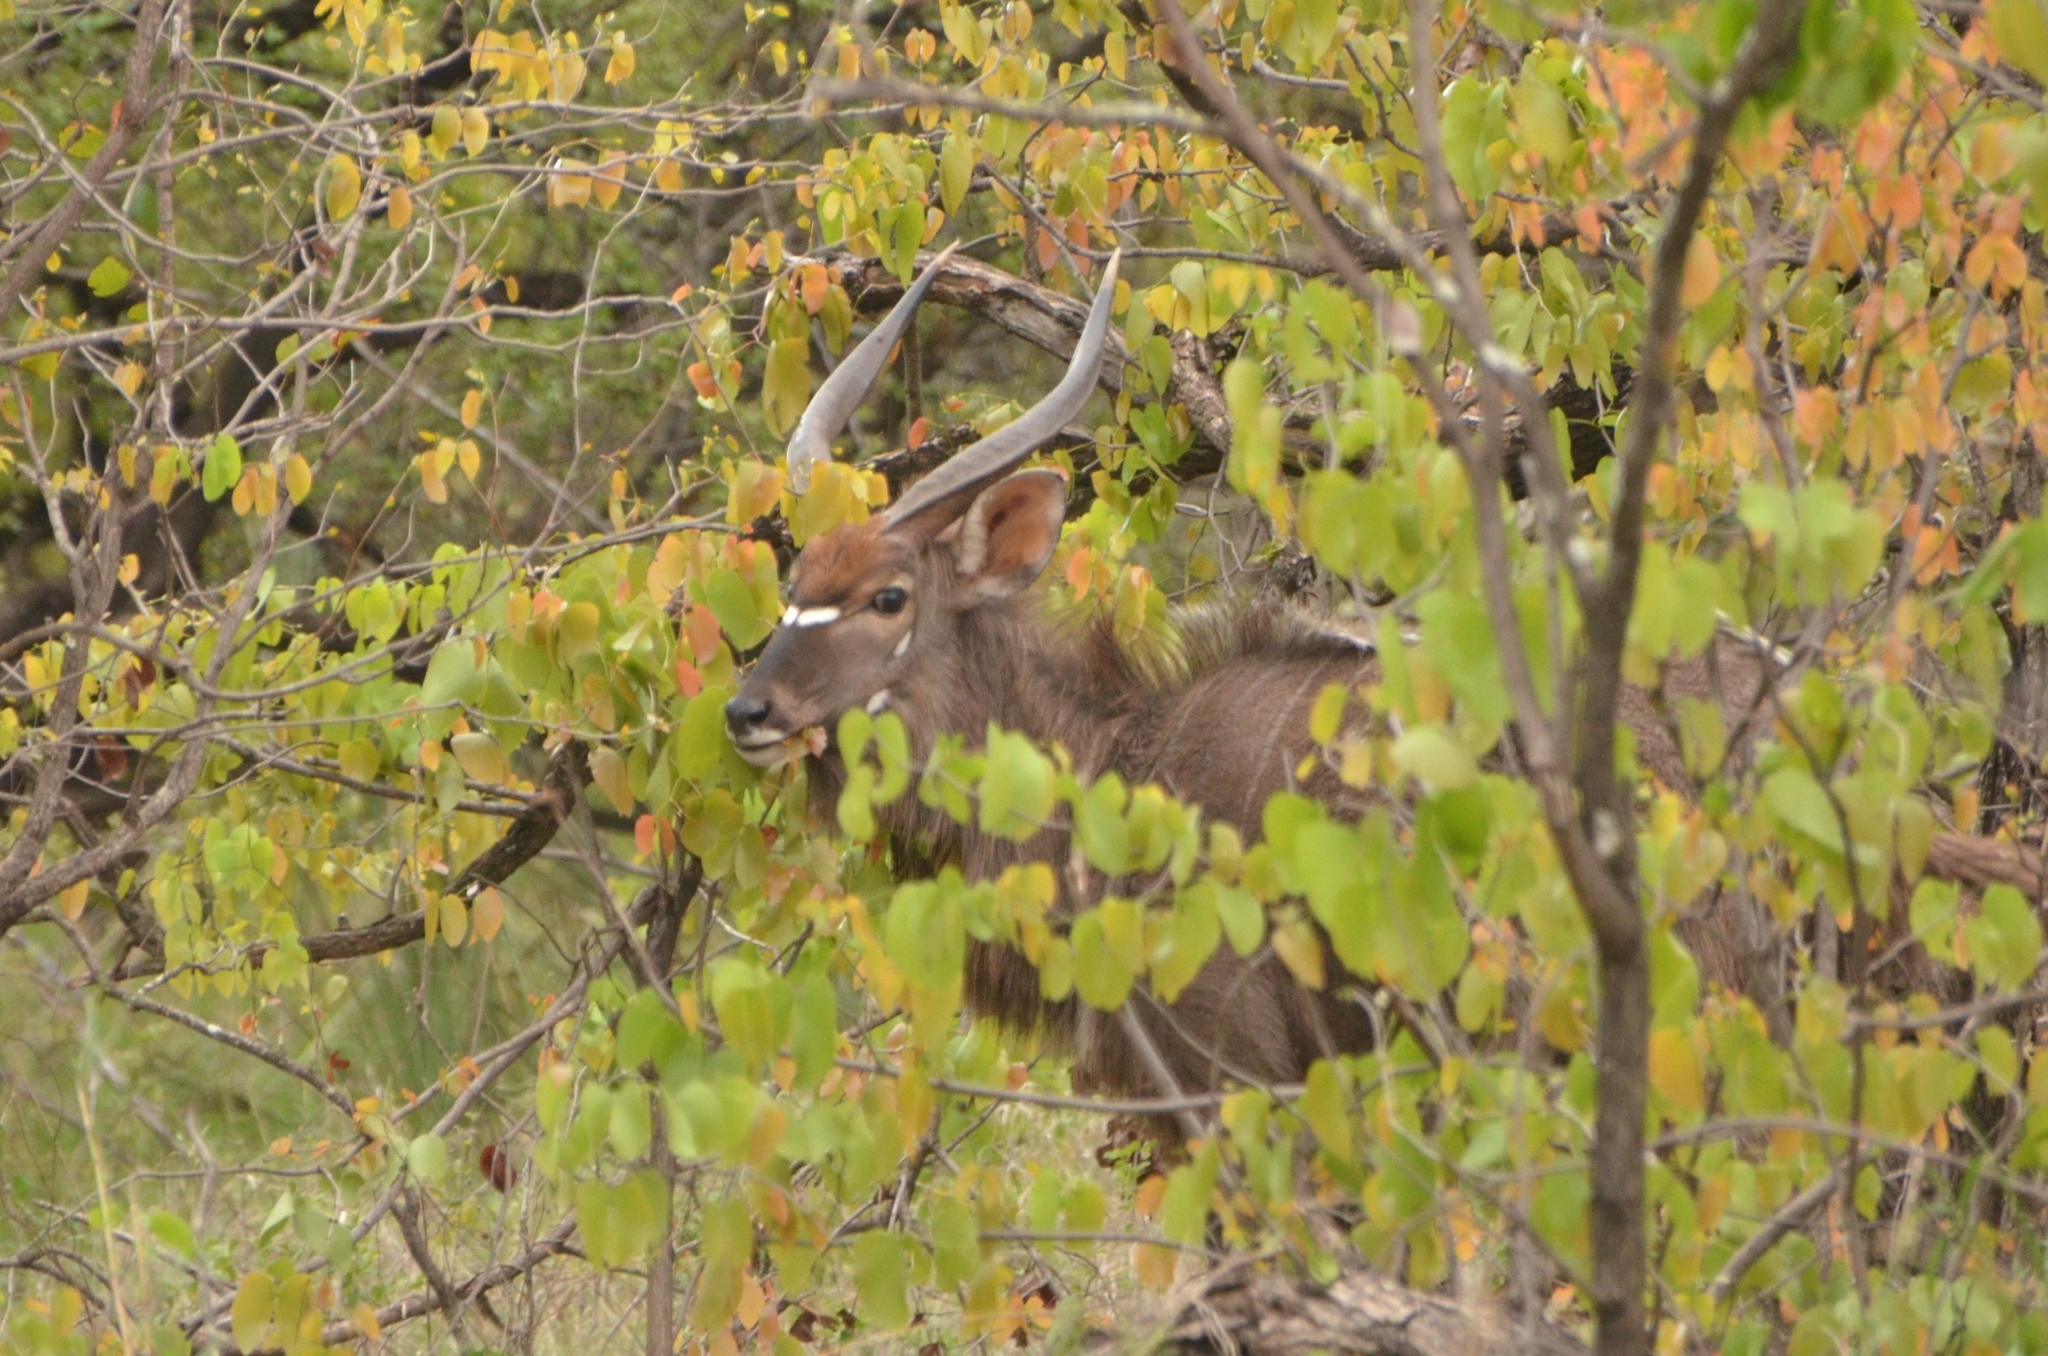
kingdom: Animalia
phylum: Chordata
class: Mammalia
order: Artiodactyla
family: Bovidae
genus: Tragelaphus
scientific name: Tragelaphus angasii
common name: Nyala
